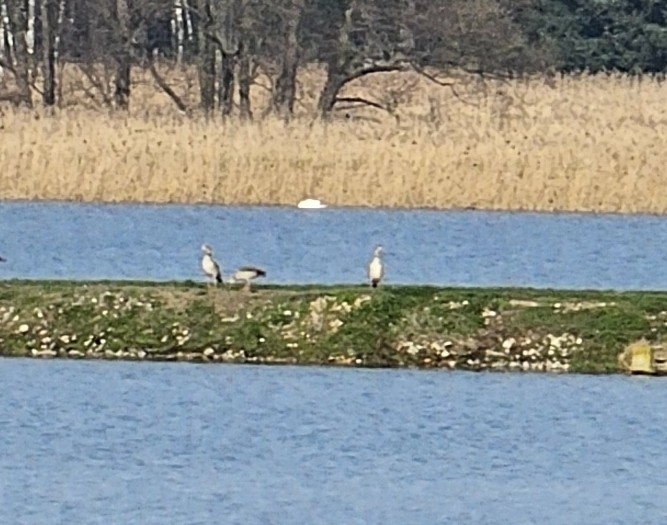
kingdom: Animalia
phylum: Chordata
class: Aves
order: Anseriformes
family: Anatidae
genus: Alopochen
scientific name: Alopochen aegyptiaca
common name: Egyptian goose
